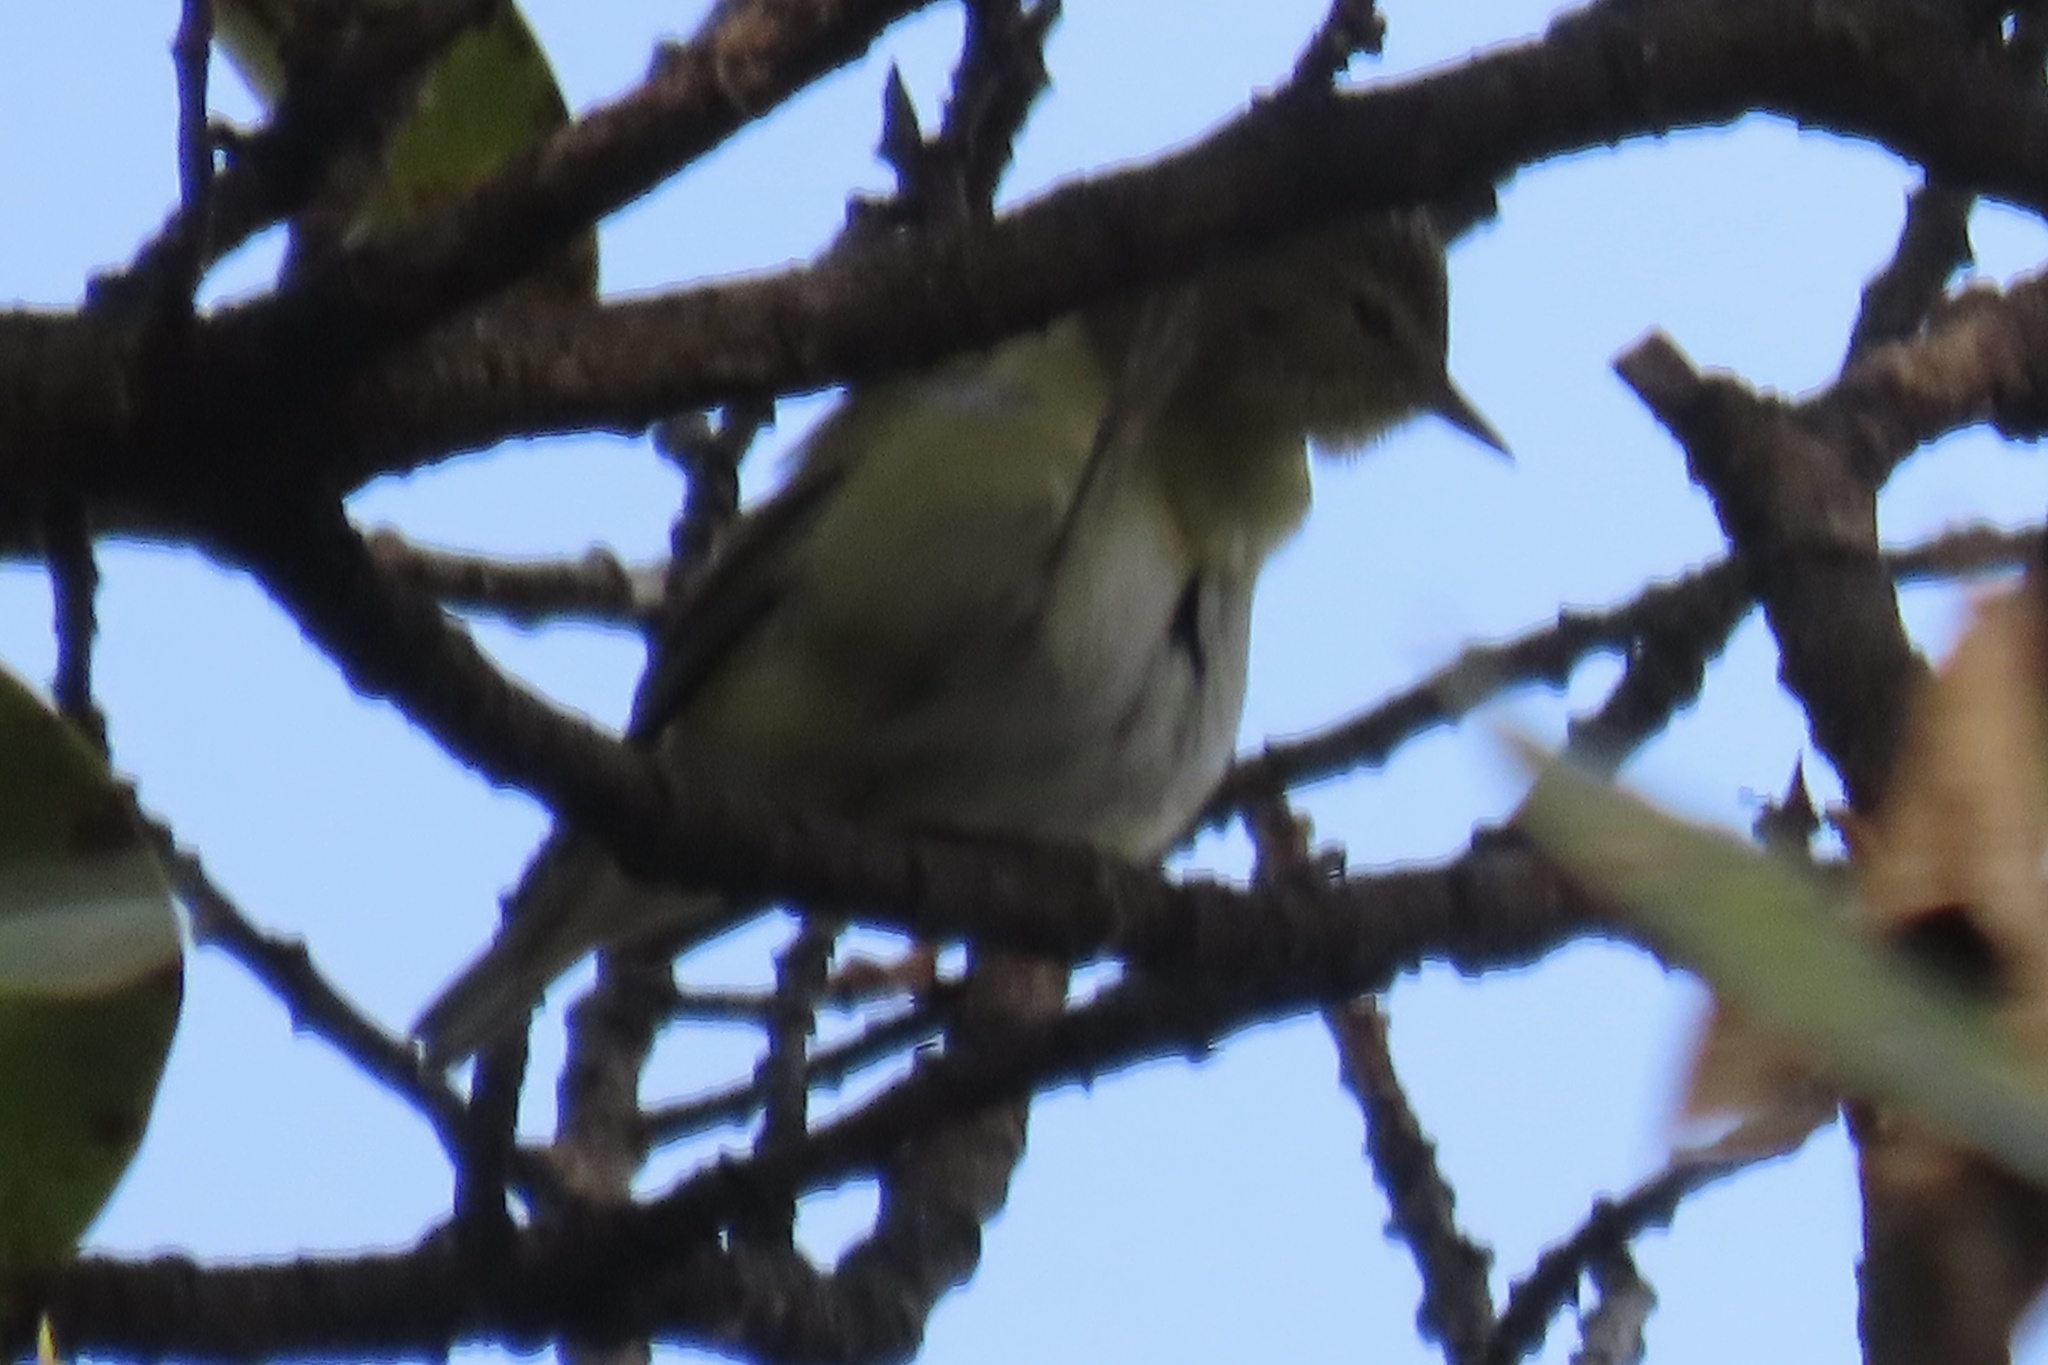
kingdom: Animalia
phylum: Chordata
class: Aves
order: Passeriformes
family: Parulidae
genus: Leiothlypis
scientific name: Leiothlypis peregrina
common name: Tennessee warbler
